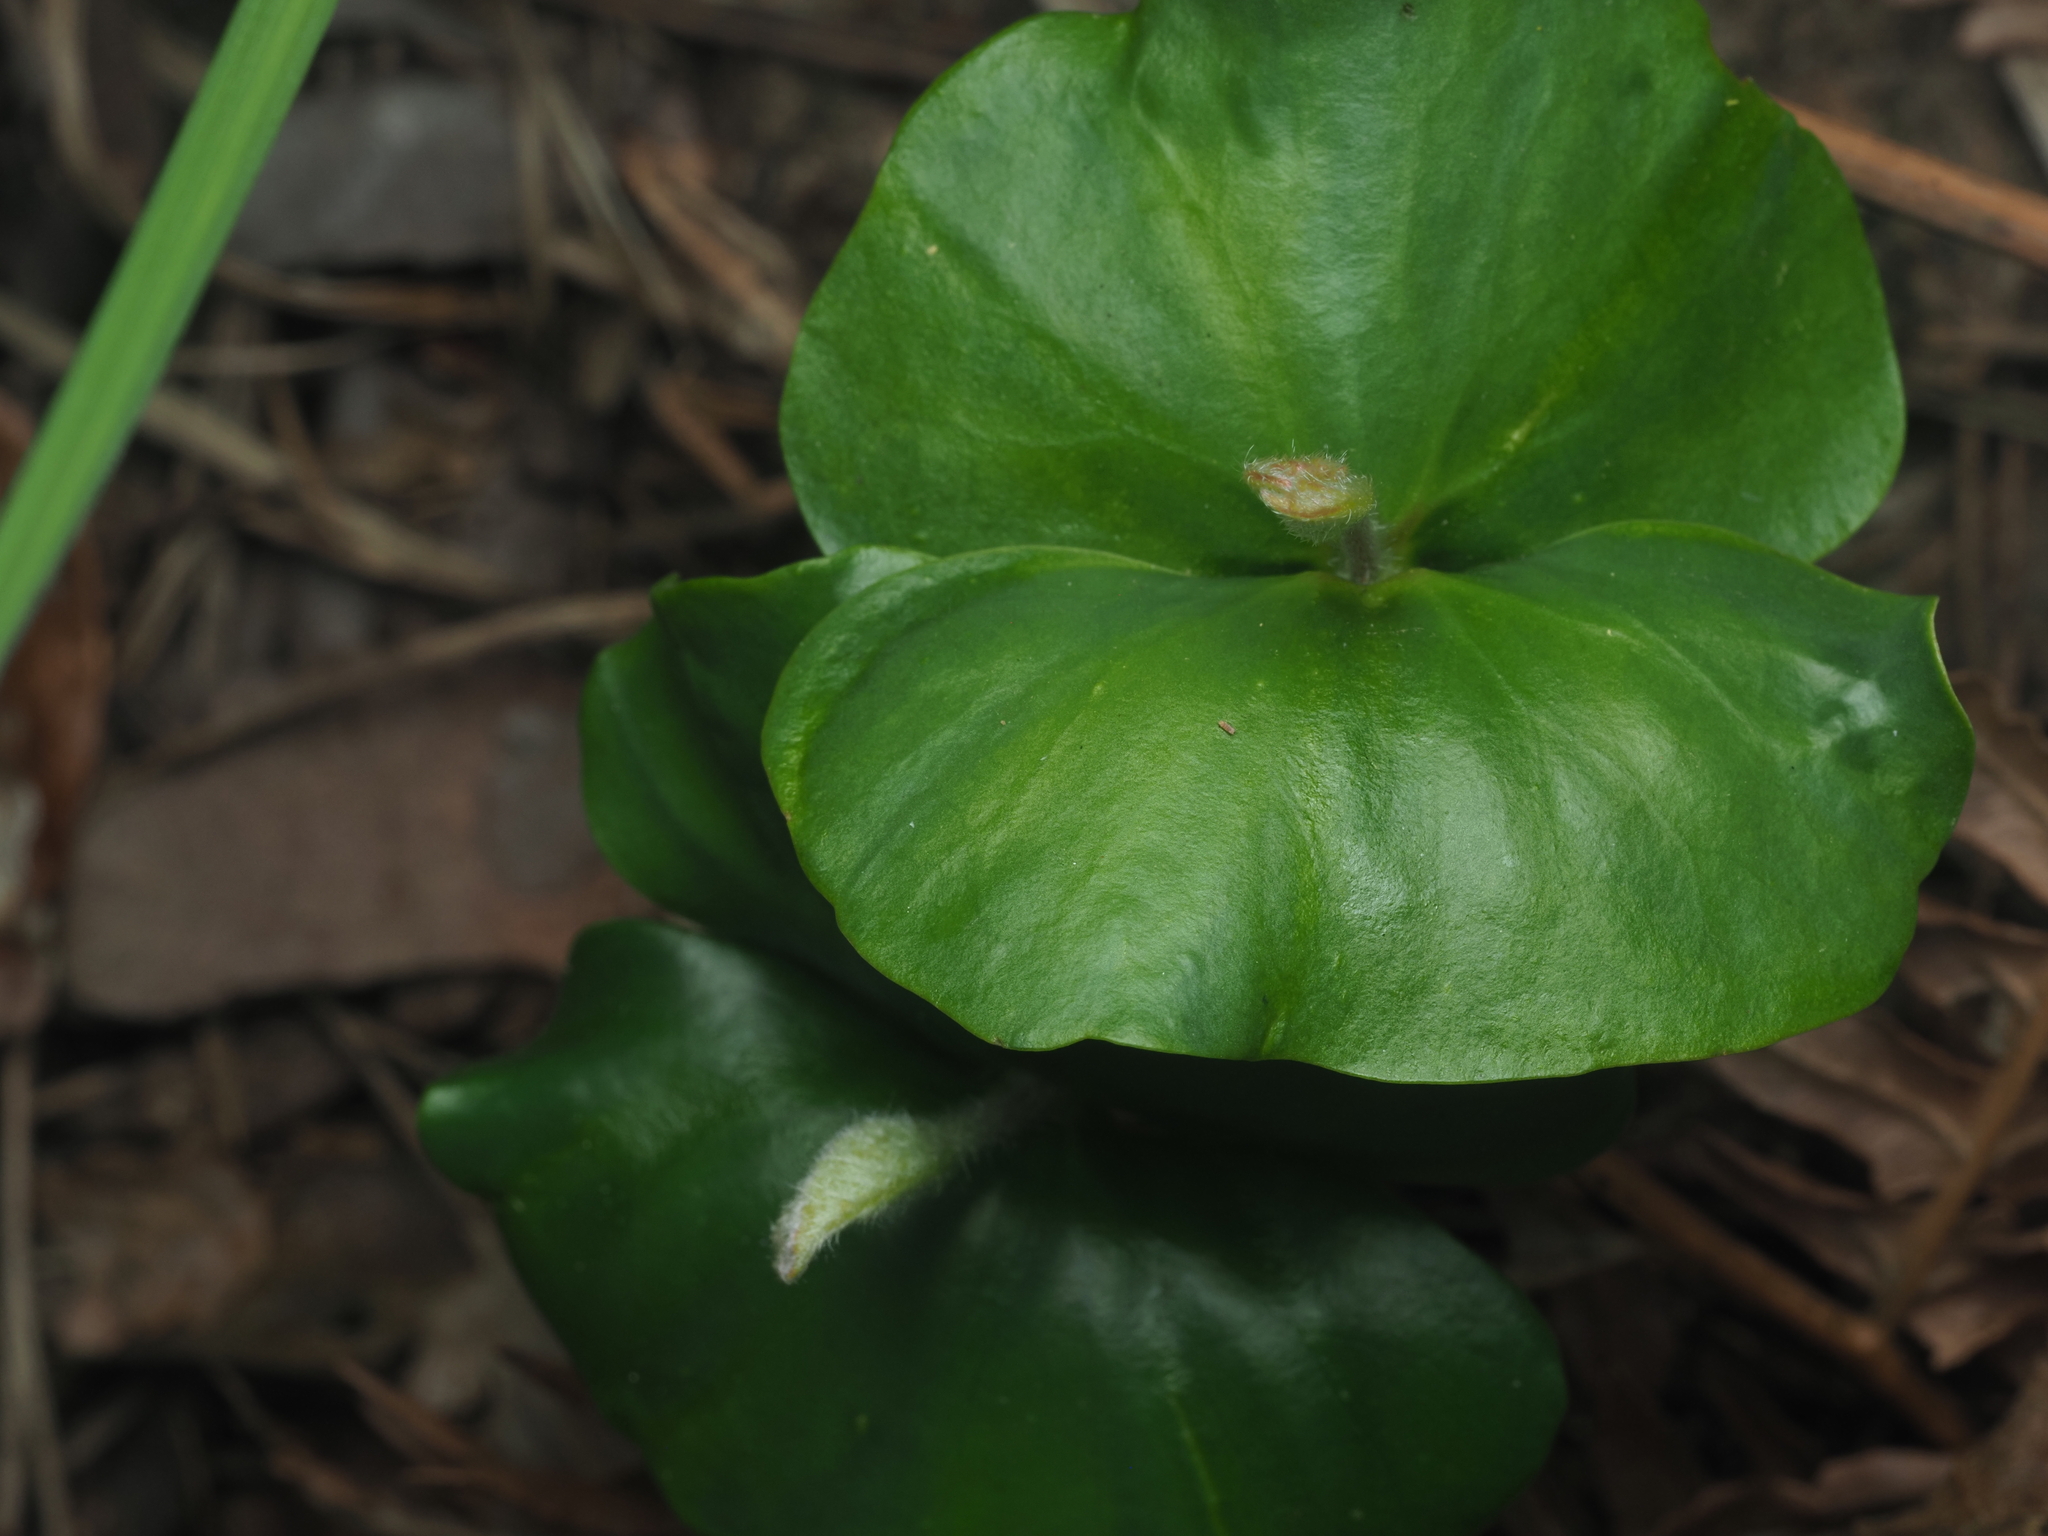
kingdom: Plantae
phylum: Tracheophyta
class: Magnoliopsida
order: Fagales
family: Fagaceae
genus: Fagus
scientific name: Fagus sylvatica
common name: Beech
